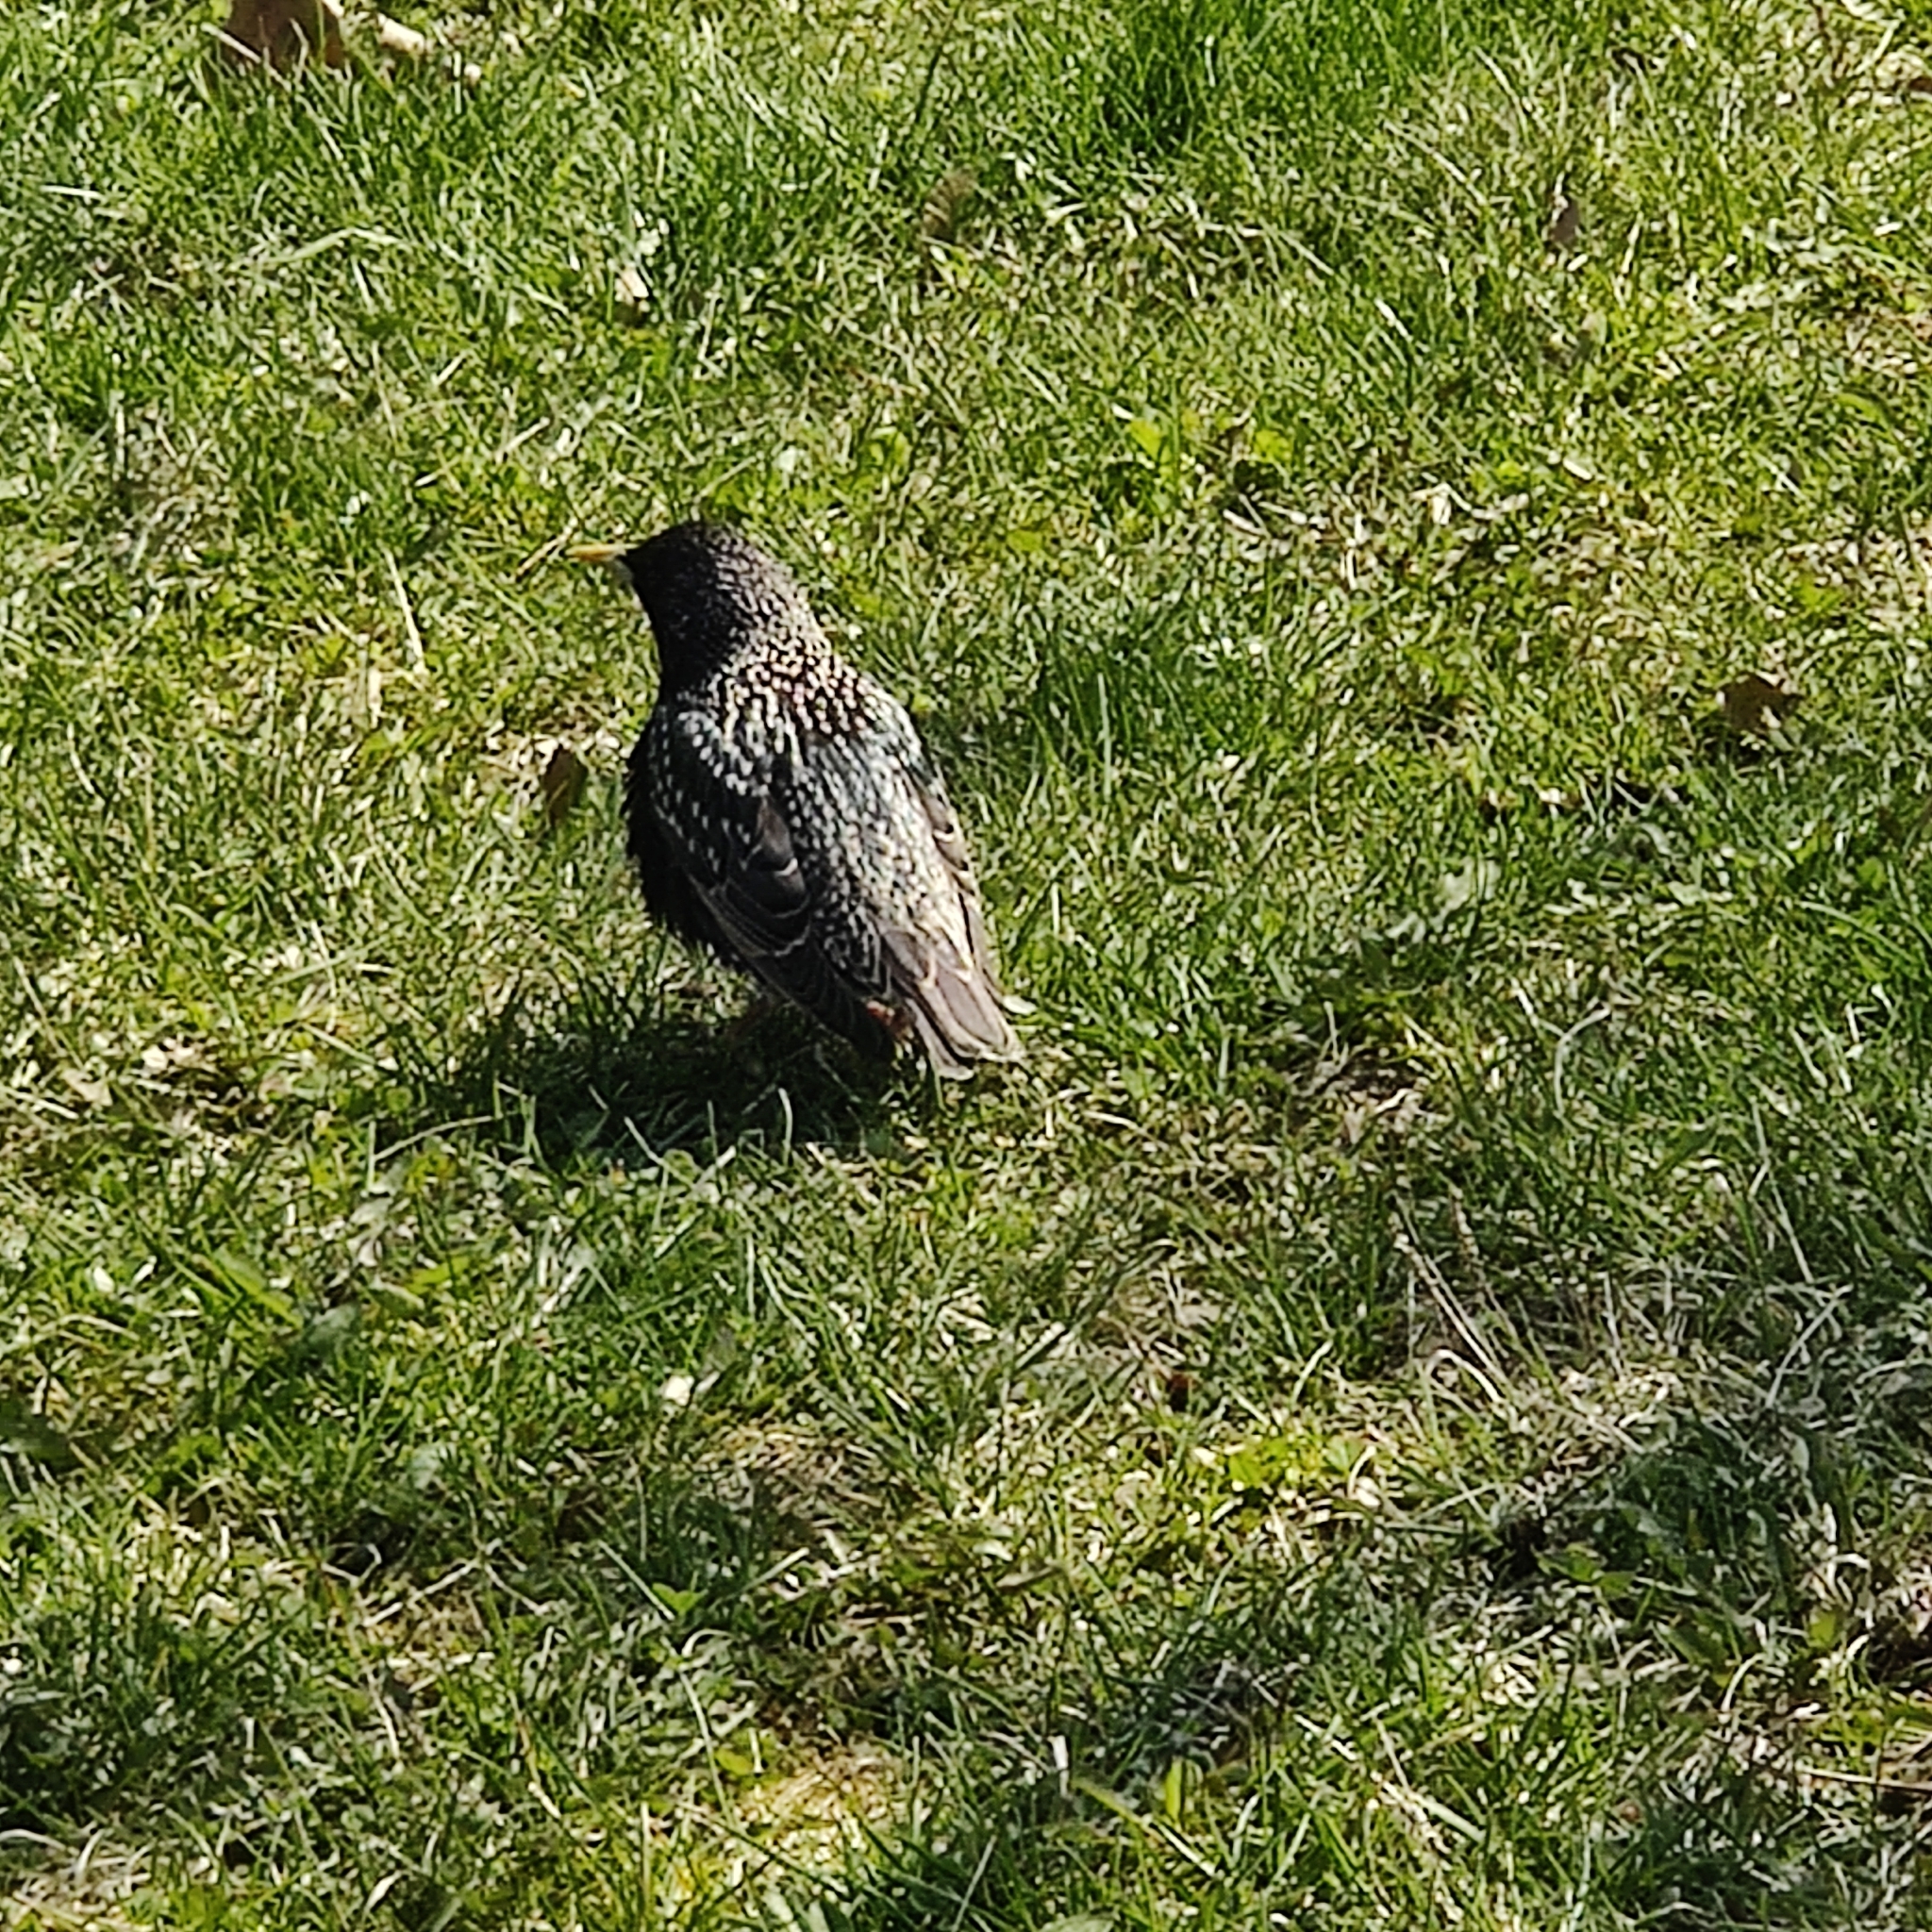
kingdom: Animalia
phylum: Chordata
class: Aves
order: Passeriformes
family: Sturnidae
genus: Sturnus
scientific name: Sturnus vulgaris
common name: Common starling
